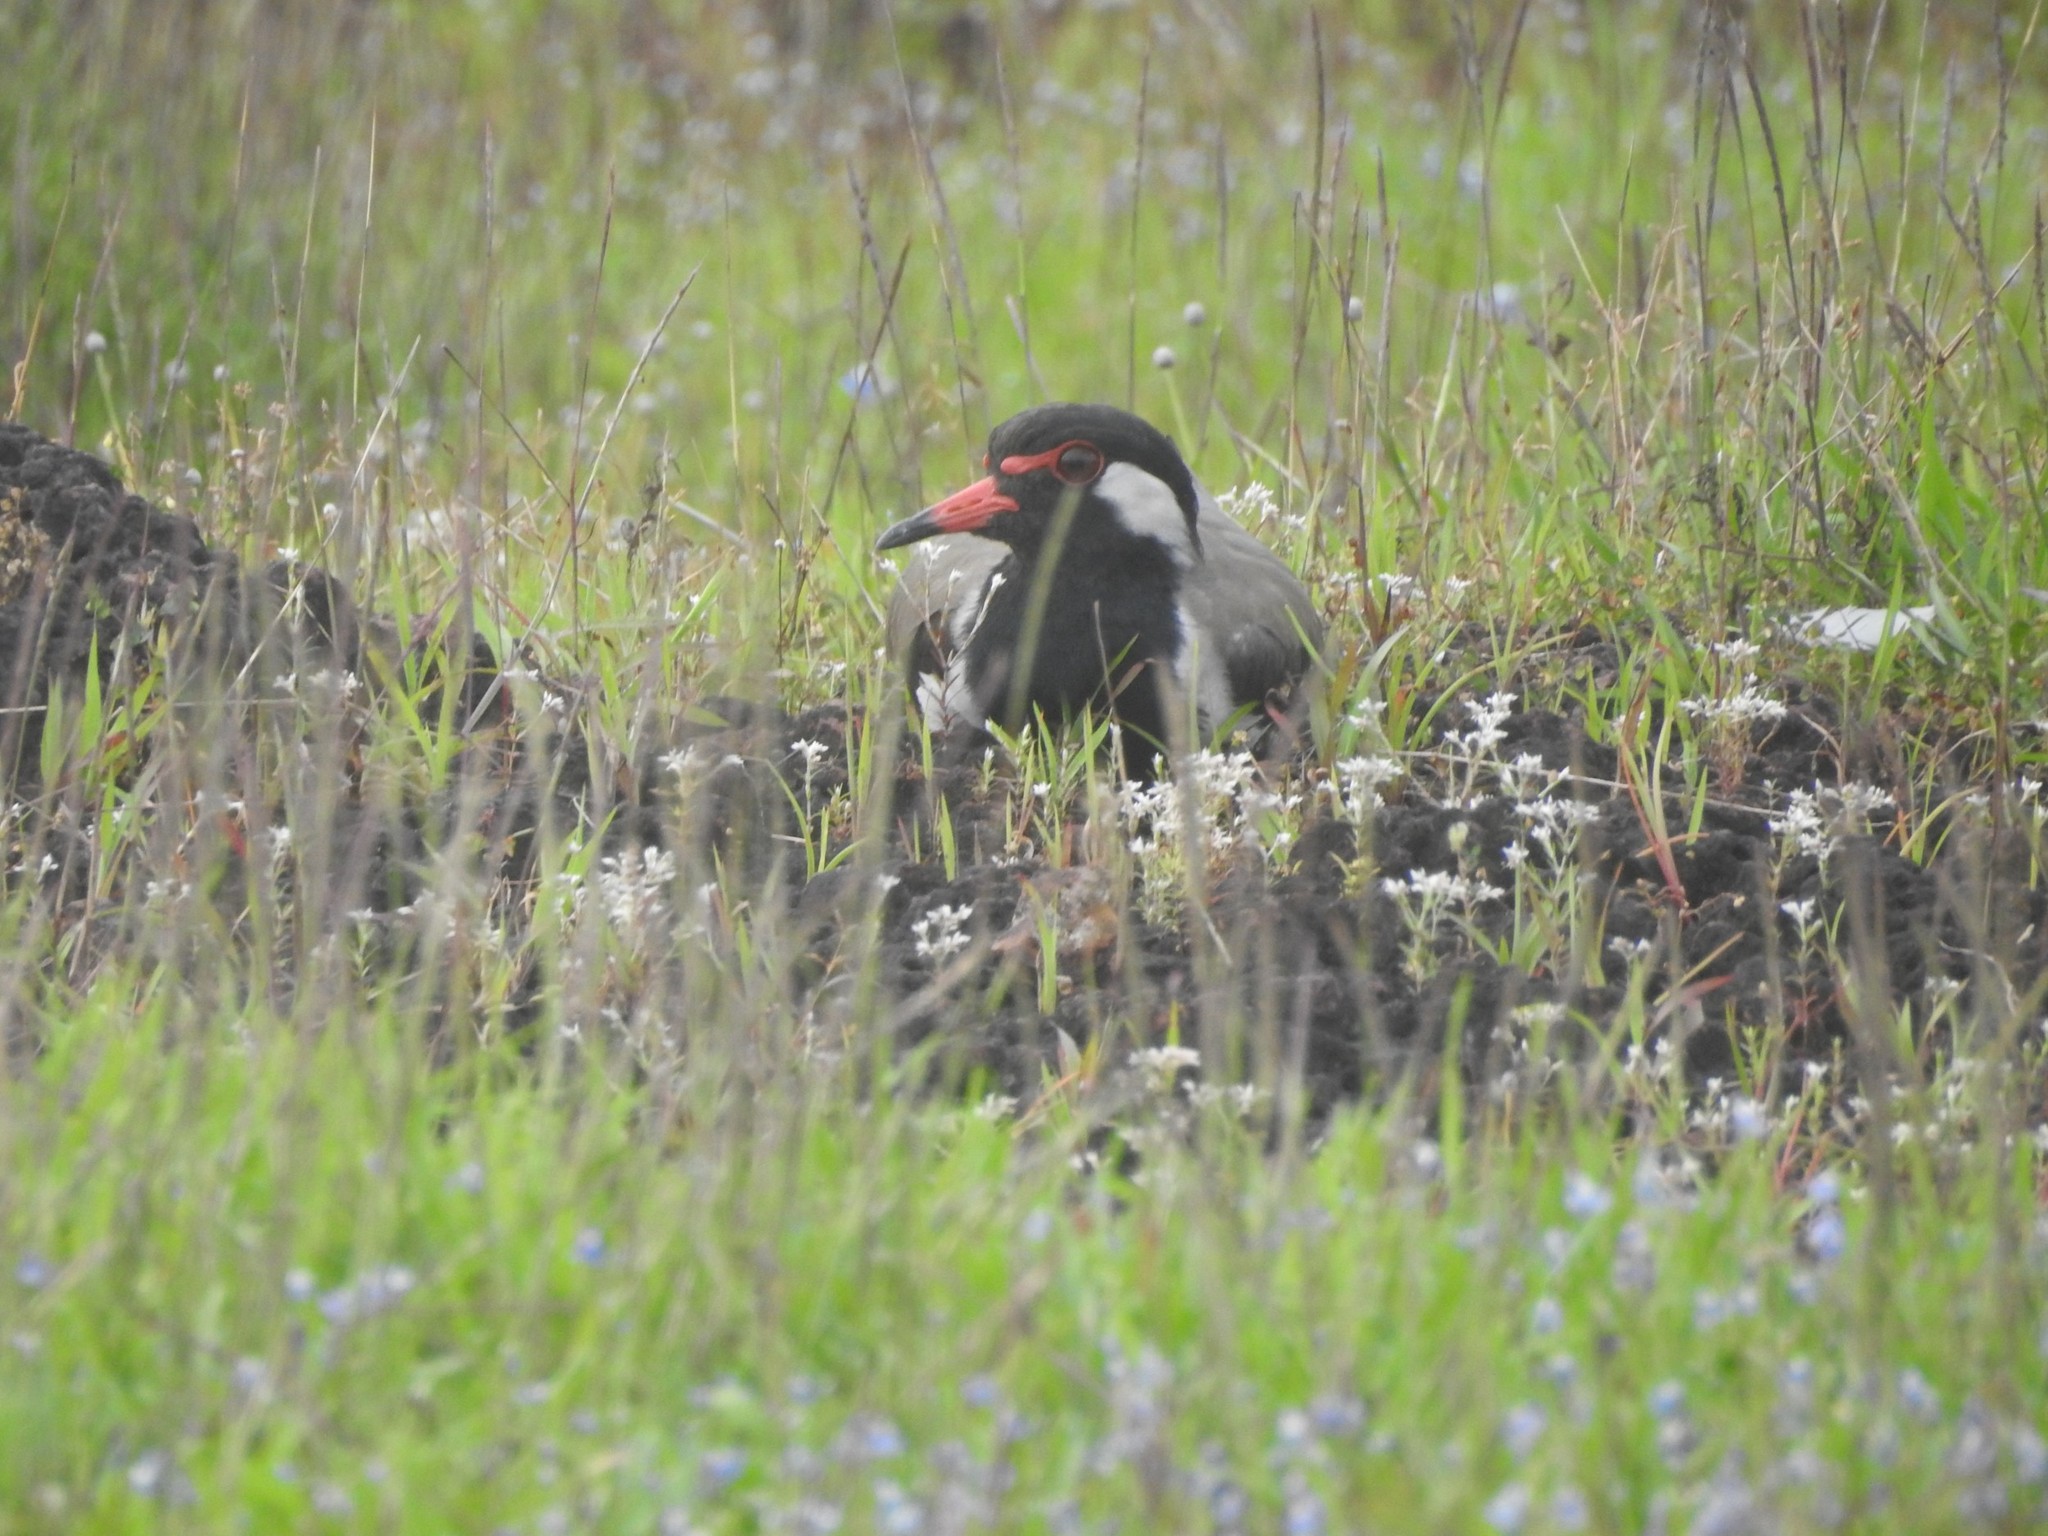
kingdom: Animalia
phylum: Chordata
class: Aves
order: Charadriiformes
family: Charadriidae
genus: Vanellus
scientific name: Vanellus indicus
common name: Red-wattled lapwing
